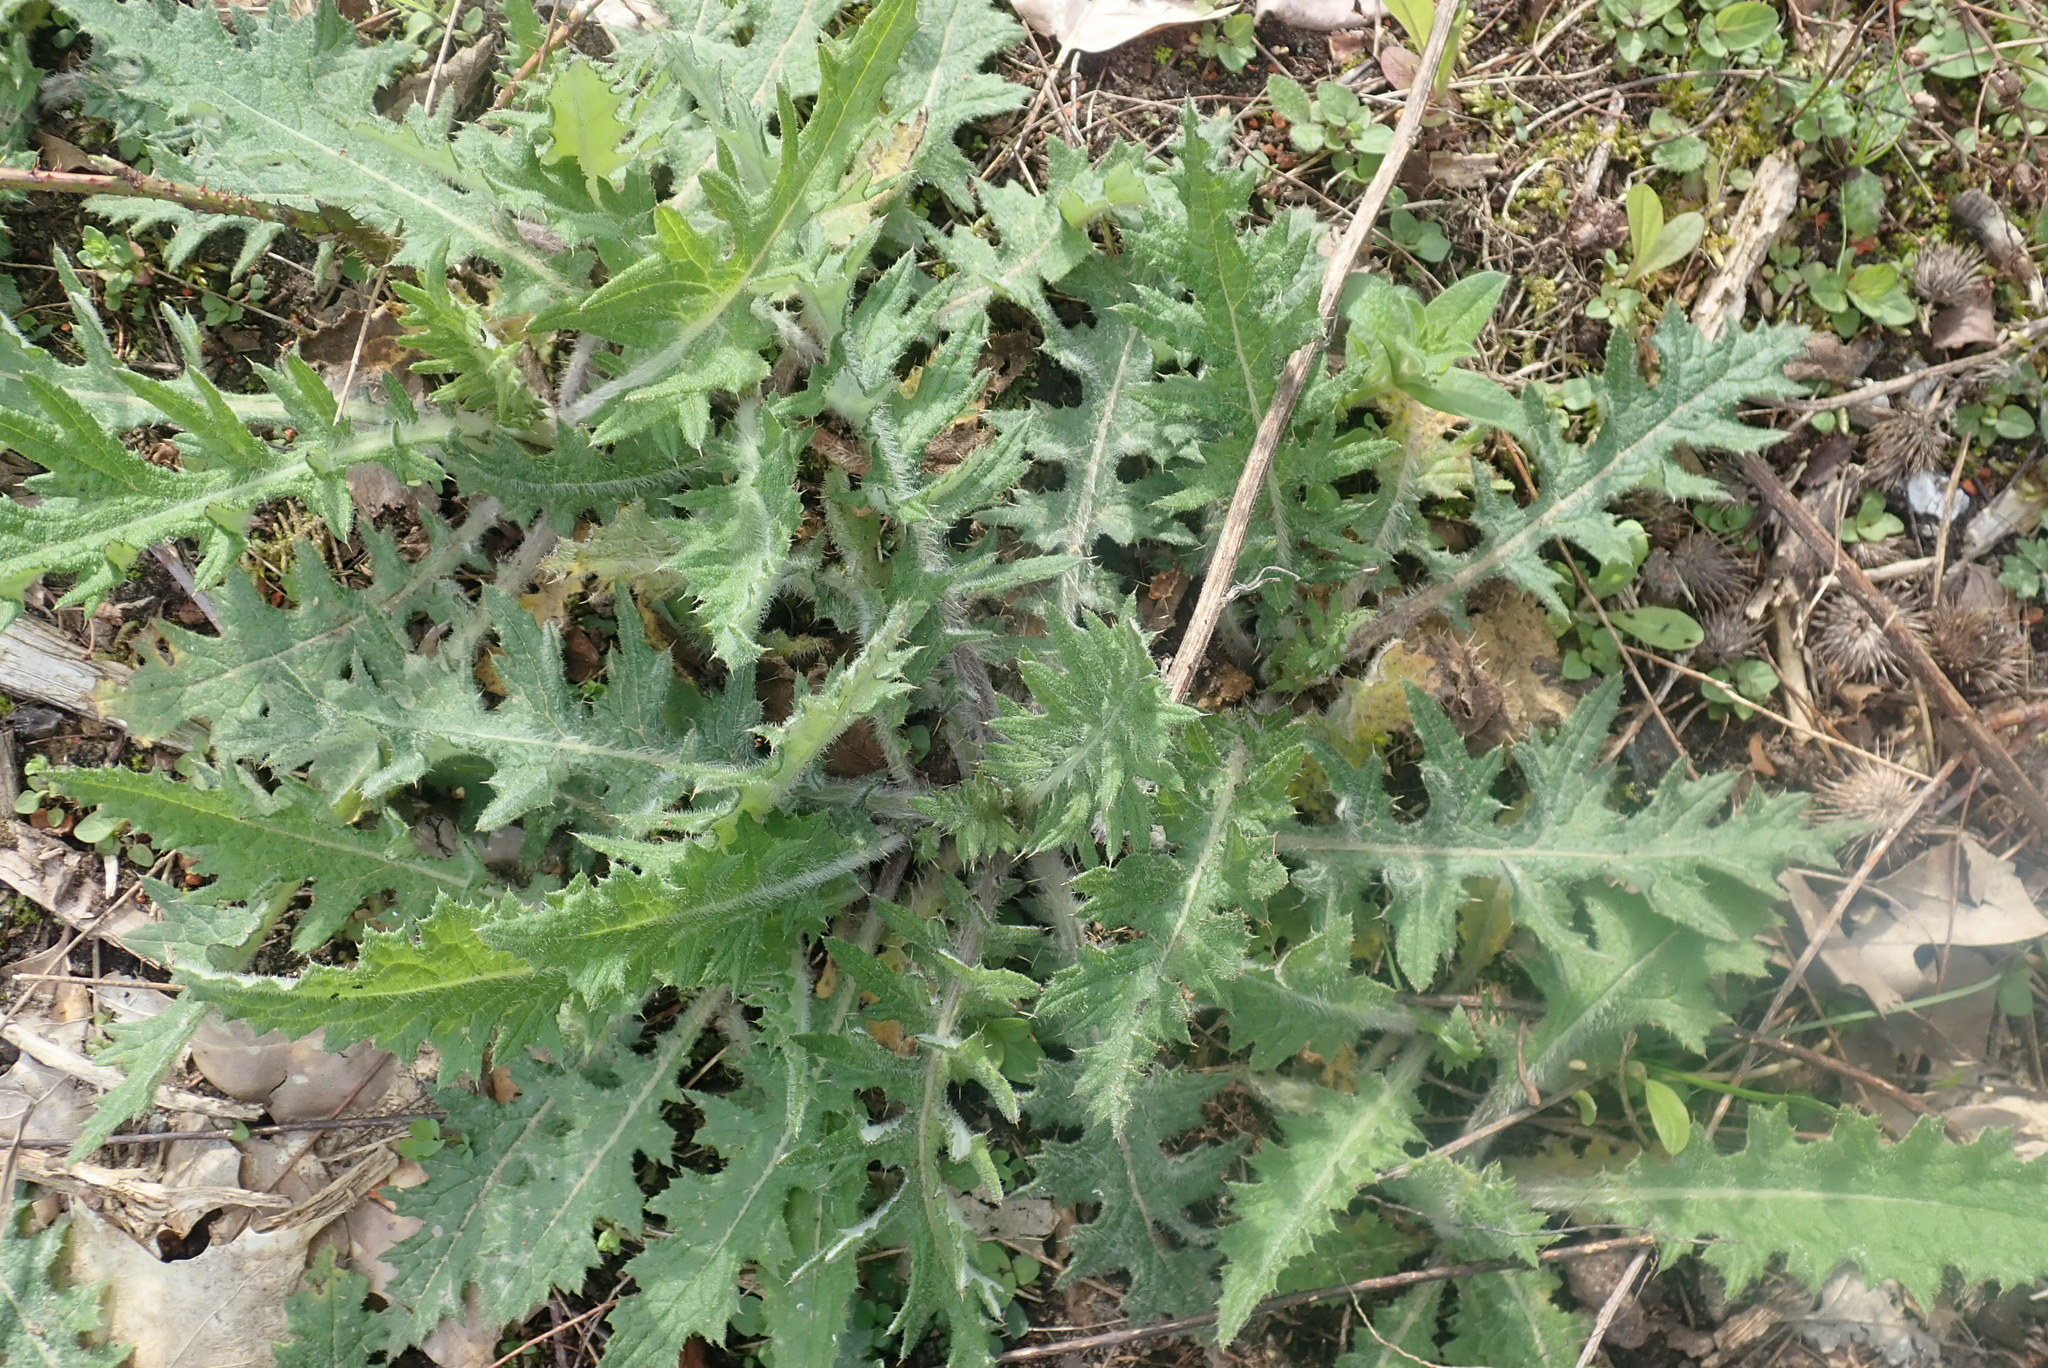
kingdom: Plantae
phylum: Tracheophyta
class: Magnoliopsida
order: Asterales
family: Asteraceae
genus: Cirsium
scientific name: Cirsium vulgare
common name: Bull thistle
